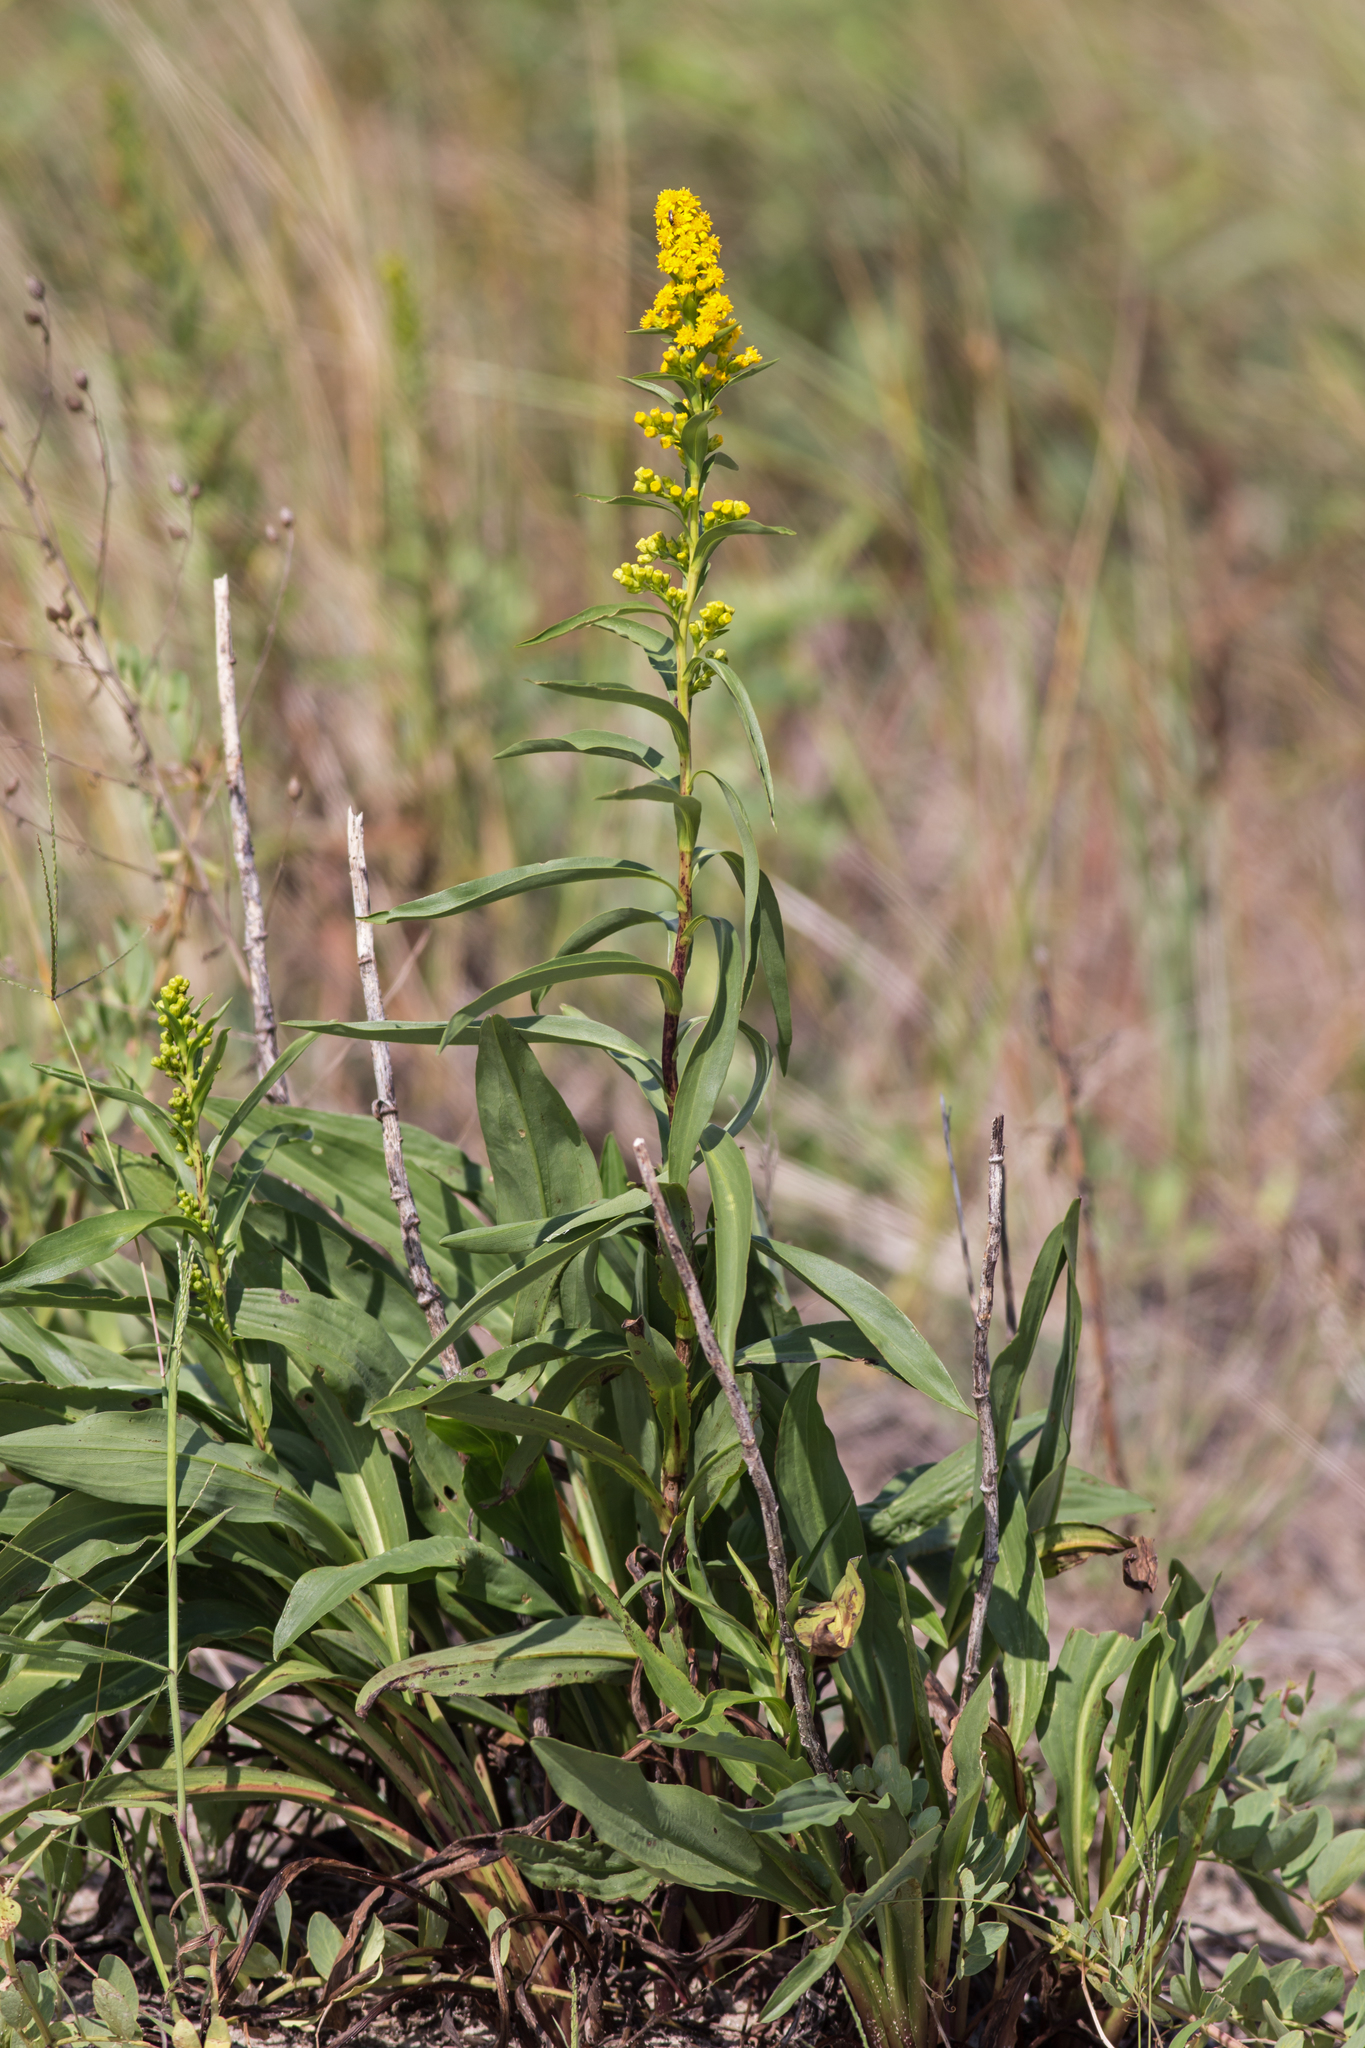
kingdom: Plantae
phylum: Tracheophyta
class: Magnoliopsida
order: Asterales
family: Asteraceae
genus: Solidago
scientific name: Solidago sempervirens
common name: Salt-marsh goldenrod
